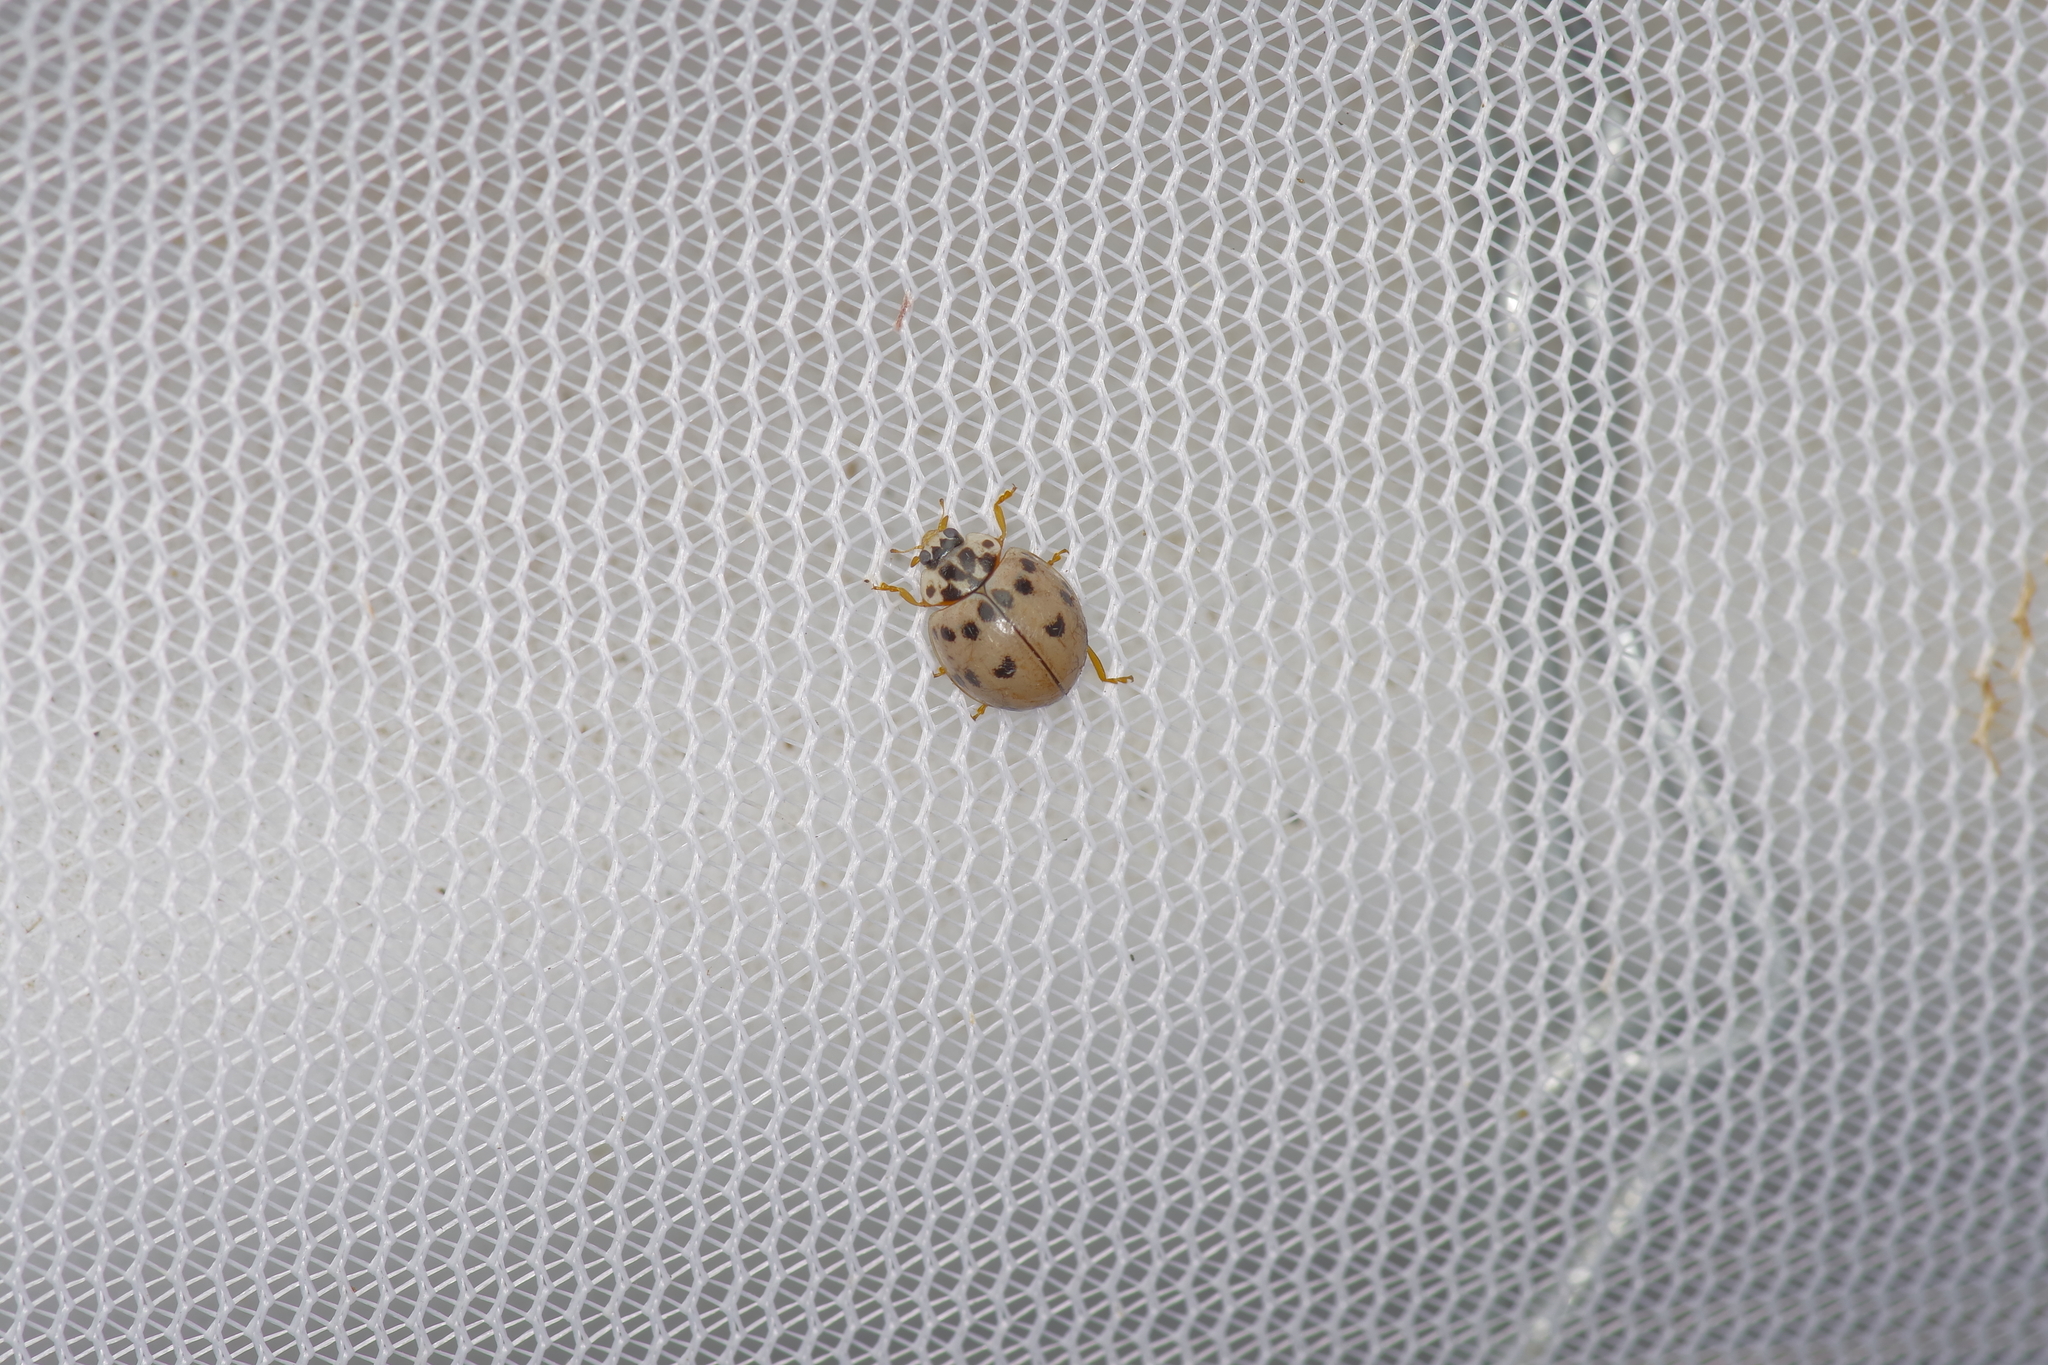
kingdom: Animalia
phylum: Arthropoda
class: Insecta
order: Coleoptera
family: Coccinellidae
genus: Olla
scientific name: Olla v-nigrum
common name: Ashy gray lady beetle
